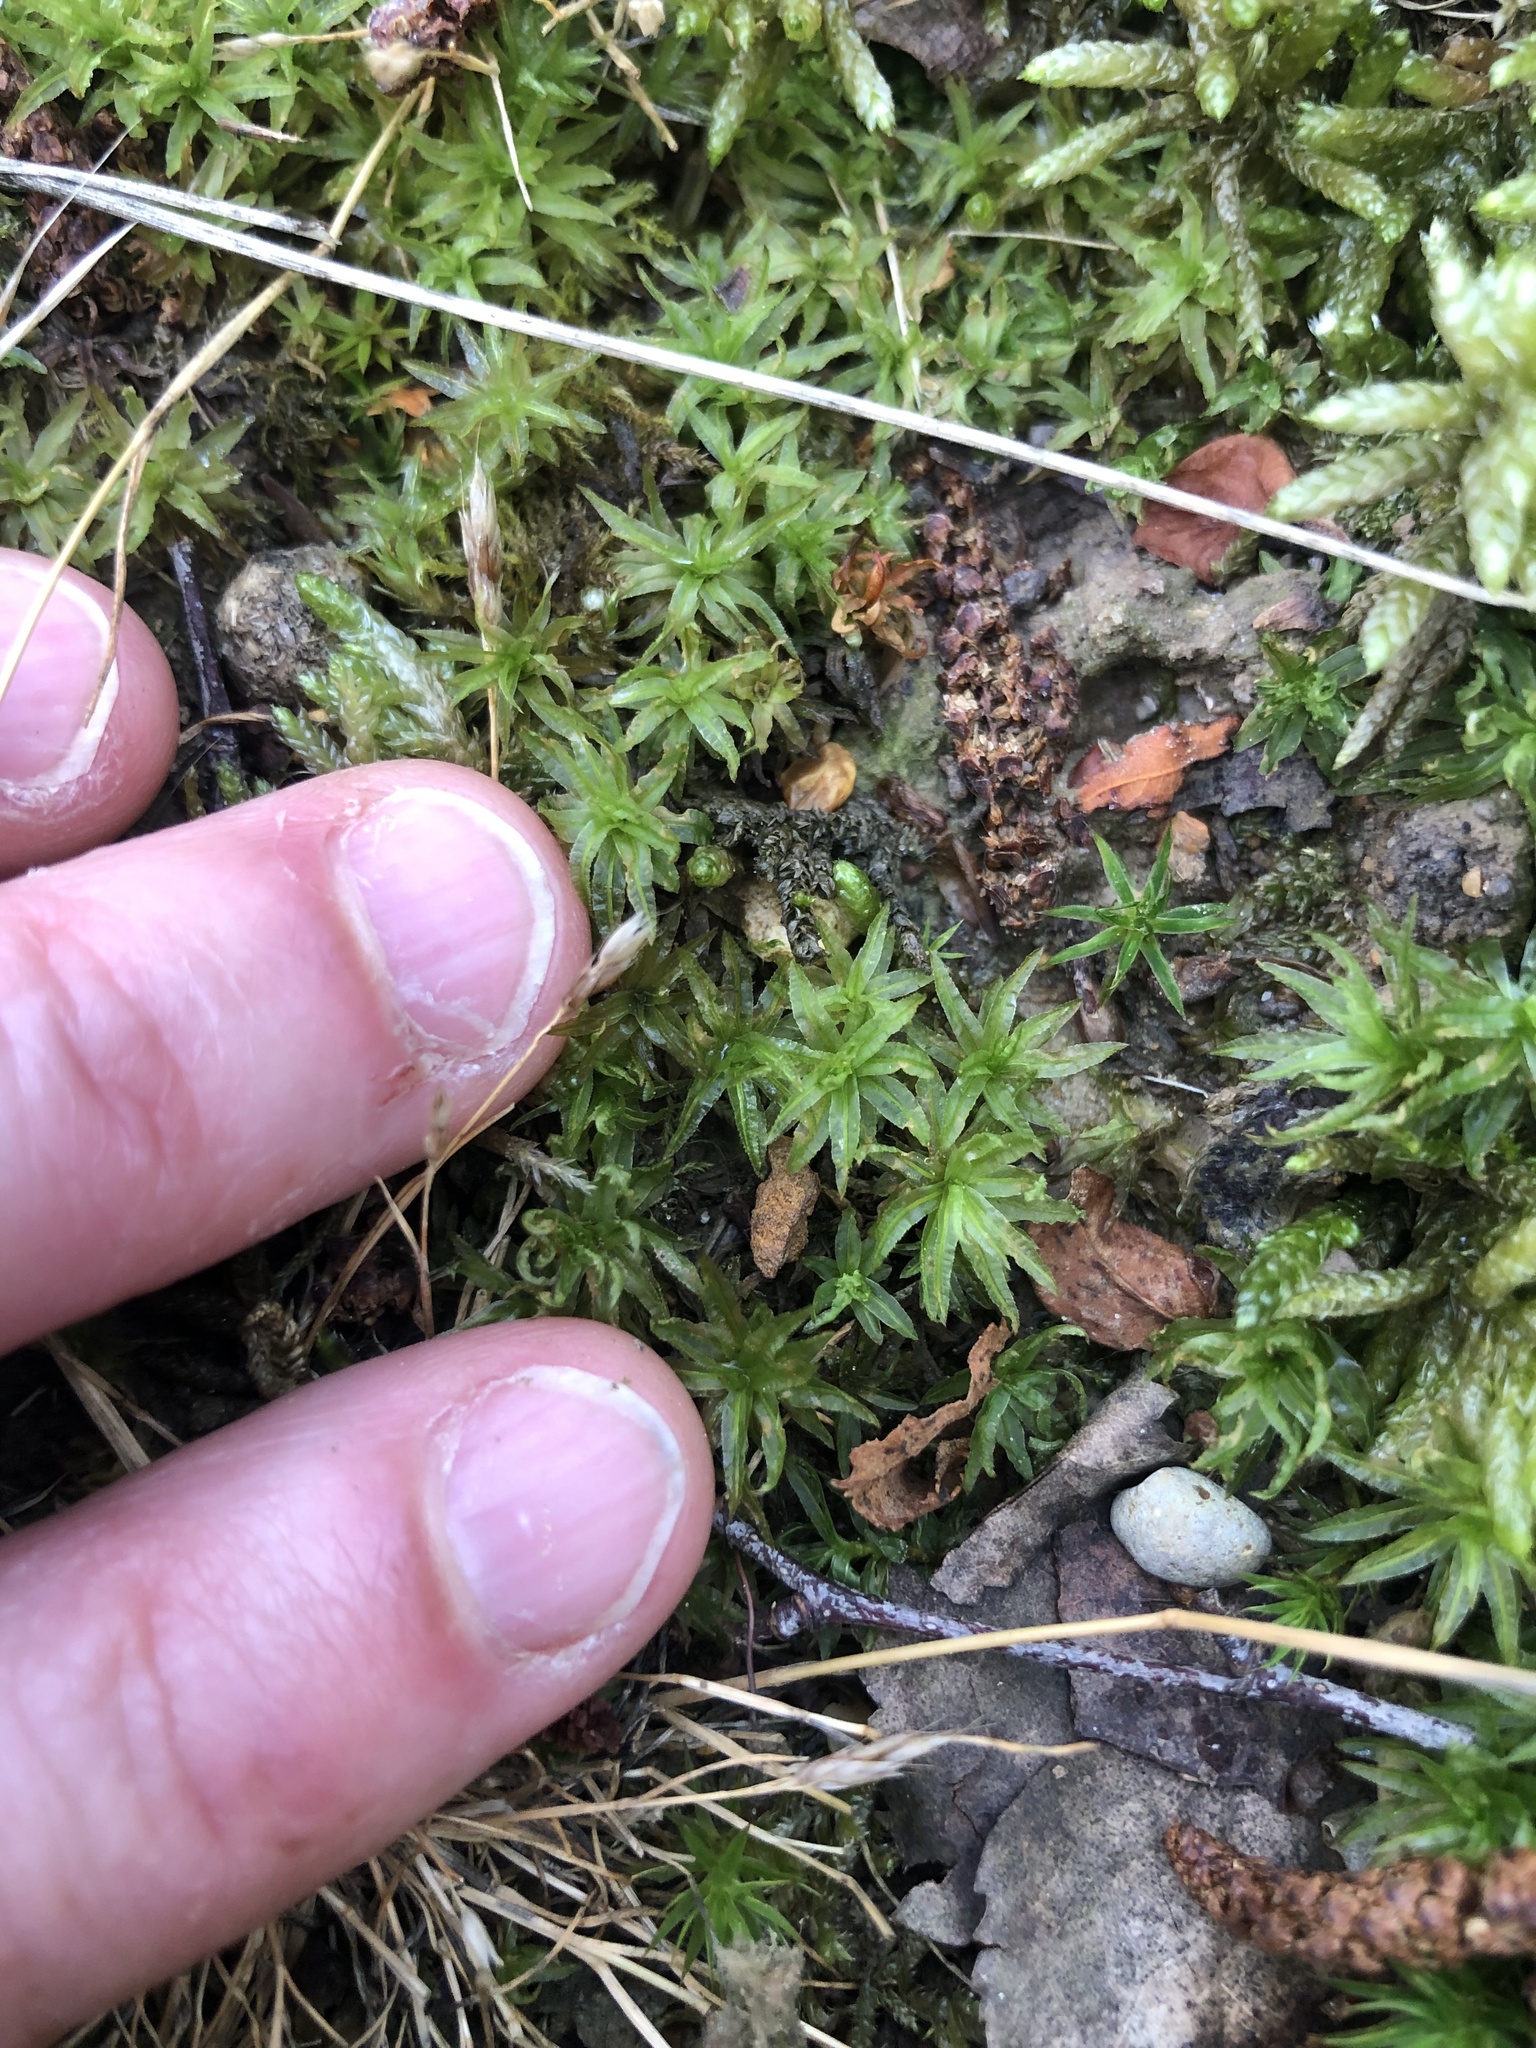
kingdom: Plantae
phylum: Bryophyta
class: Polytrichopsida
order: Polytrichales
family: Polytrichaceae
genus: Atrichum
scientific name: Atrichum undulatum
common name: Common smoothcap
